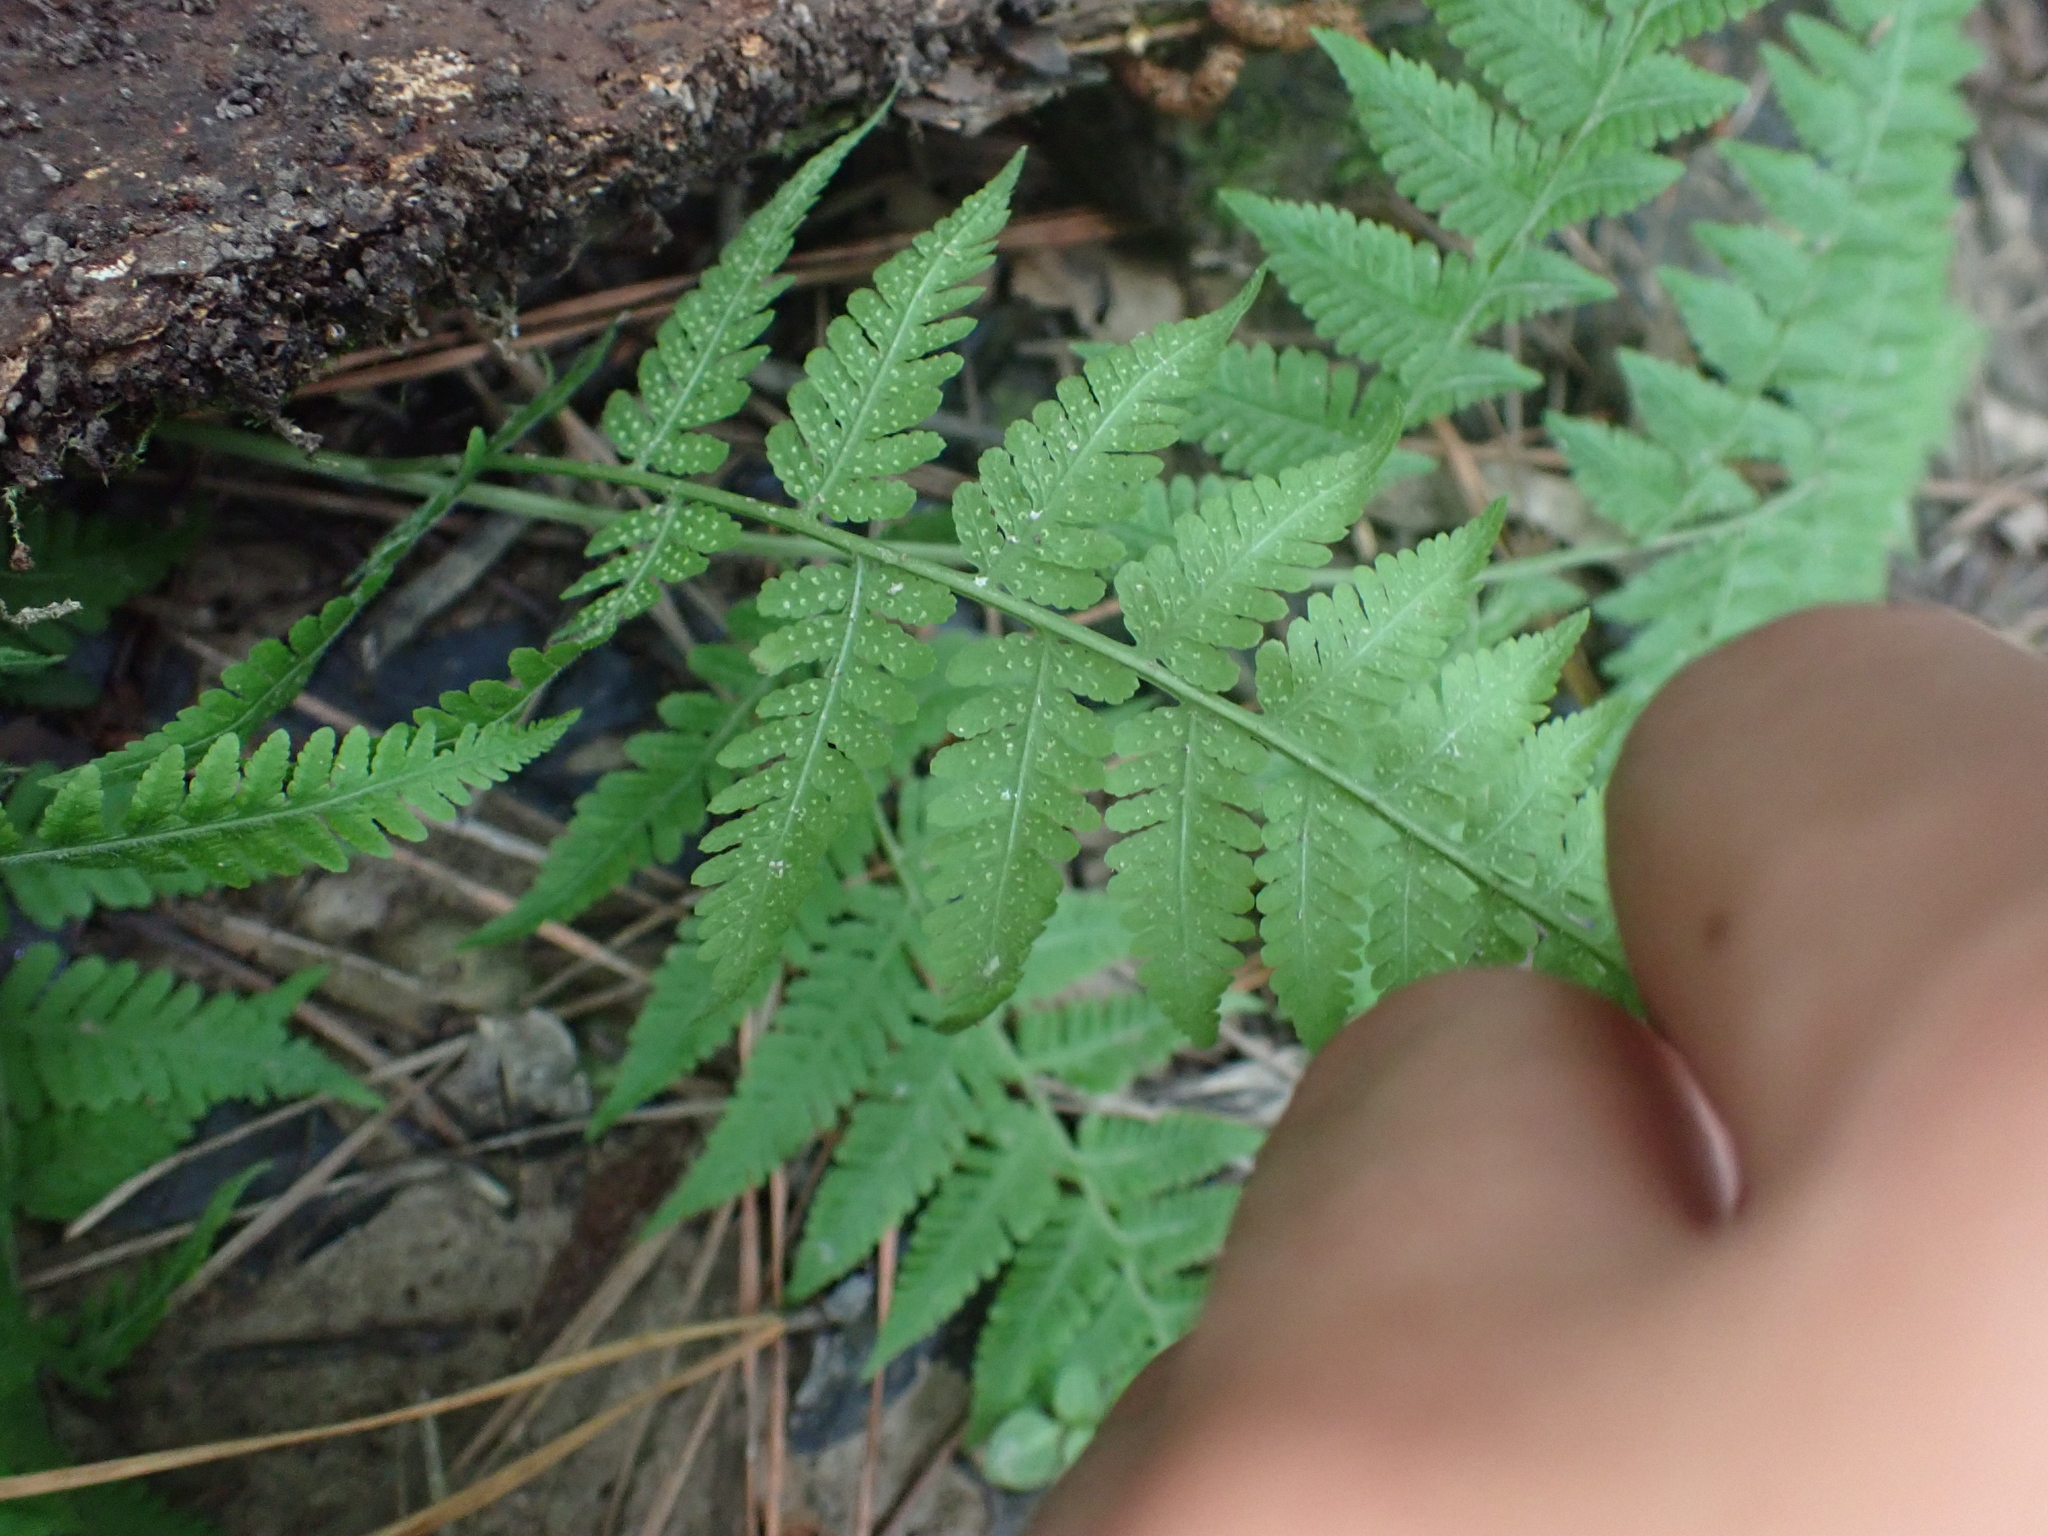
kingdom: Plantae
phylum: Tracheophyta
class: Polypodiopsida
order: Polypodiales
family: Thelypteridaceae
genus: Macrothelypteris
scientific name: Macrothelypteris torresiana
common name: Swordfern
